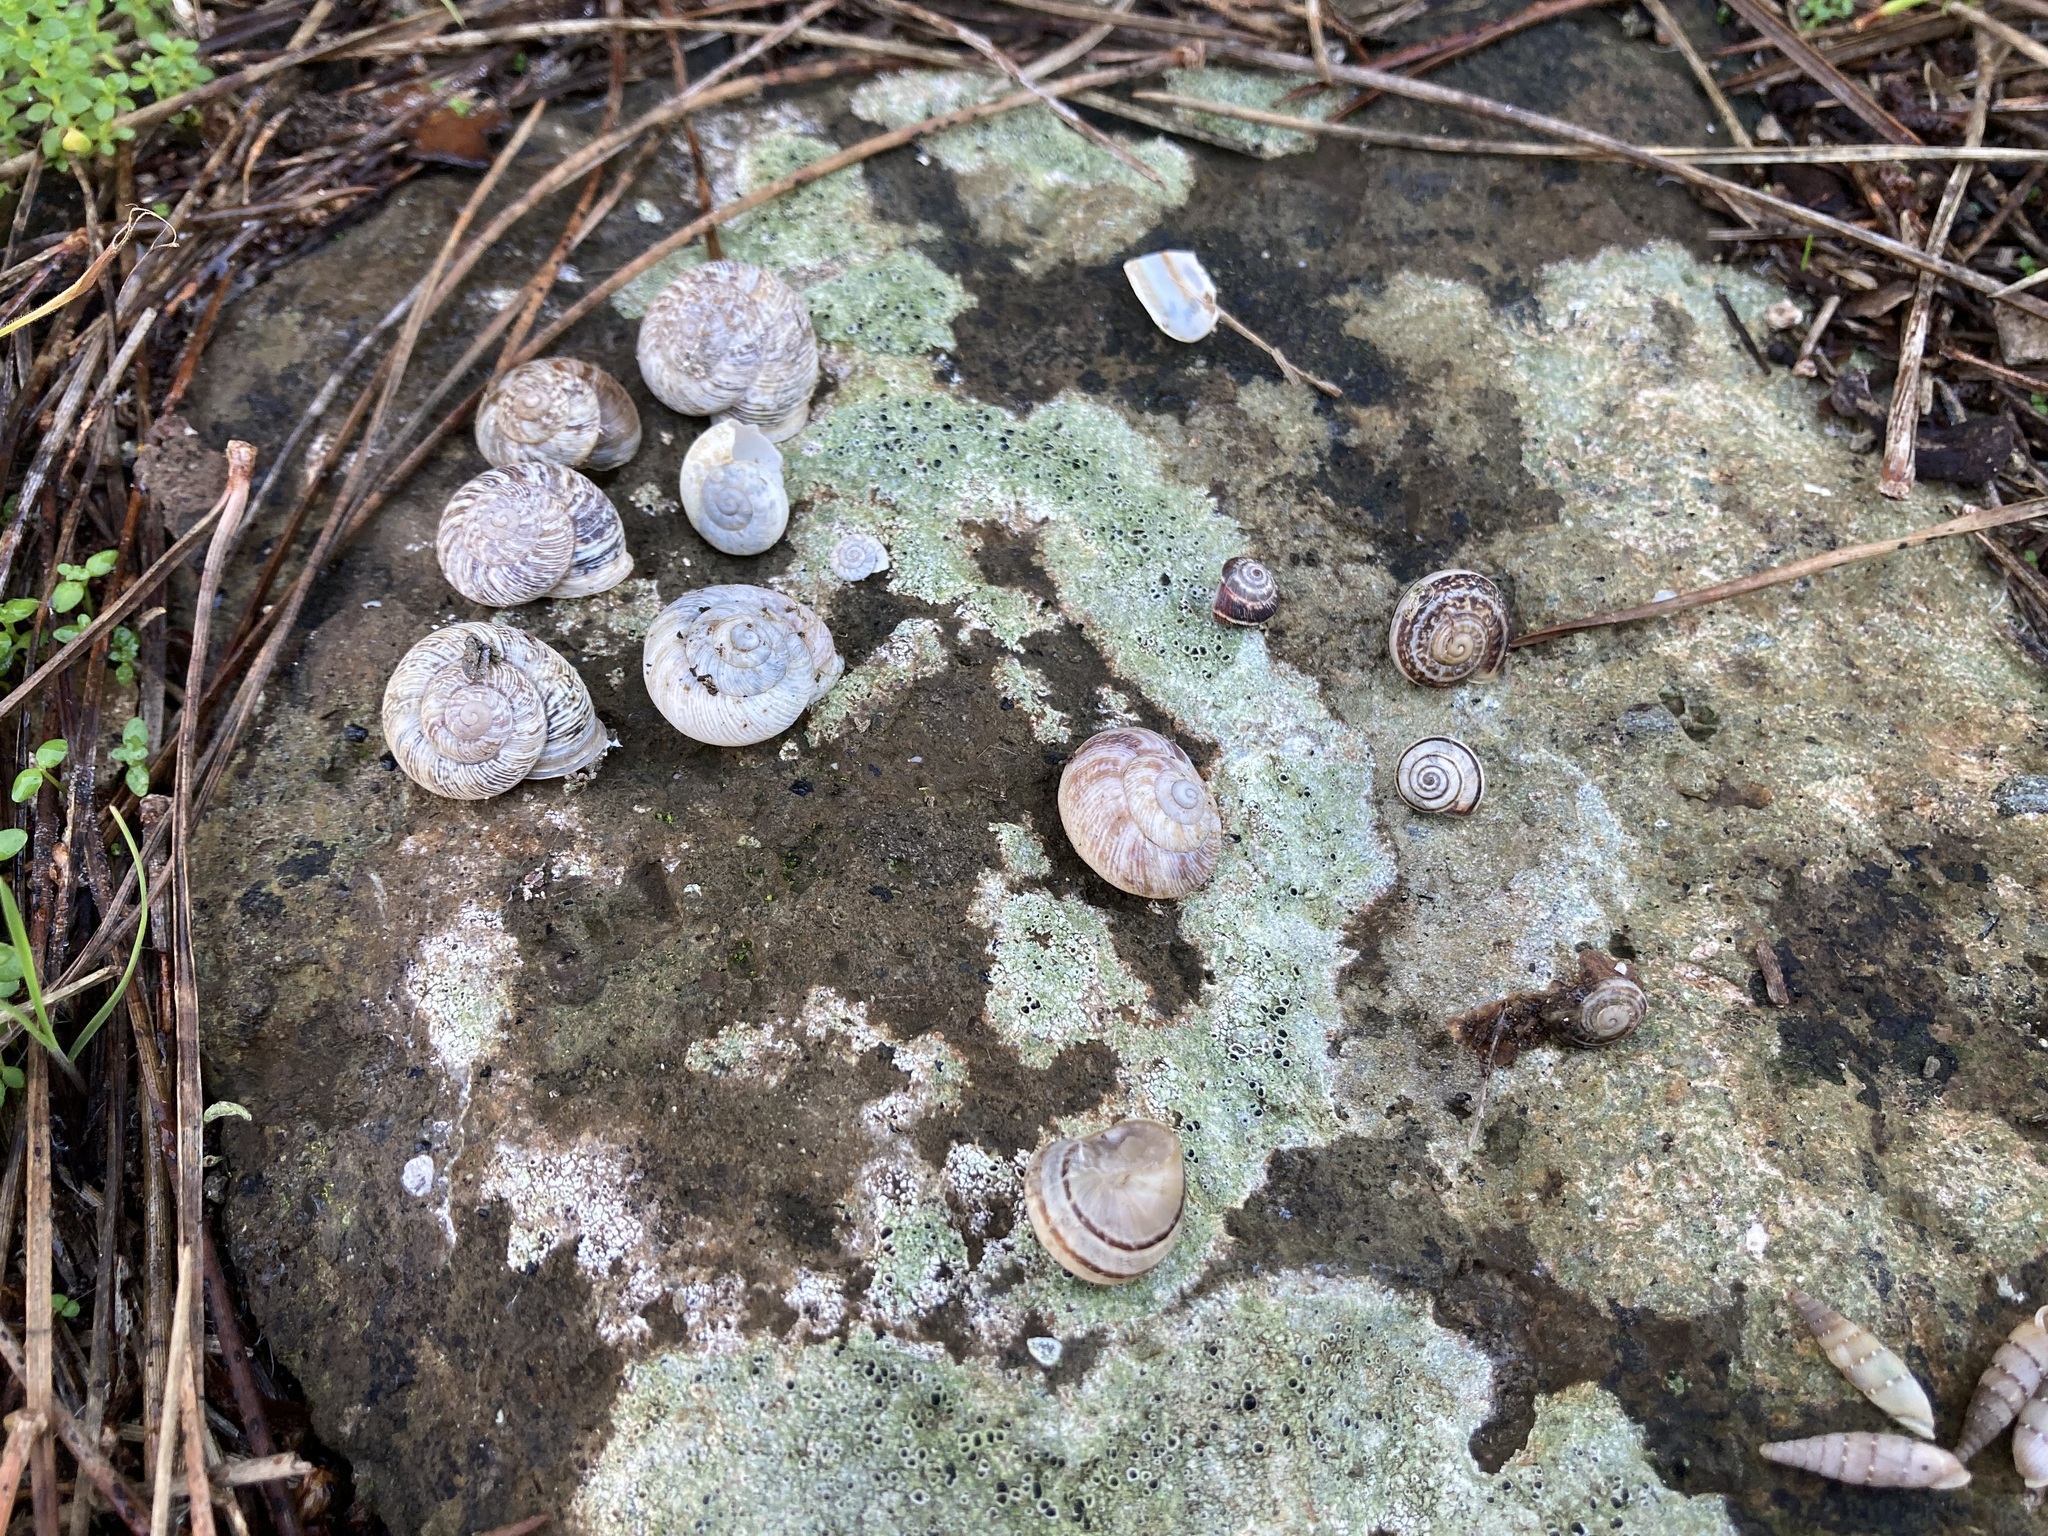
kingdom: Animalia
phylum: Mollusca
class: Gastropoda
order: Stylommatophora
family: Helicidae
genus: Eobania
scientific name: Eobania vermiculata
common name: Chocolateband snail
